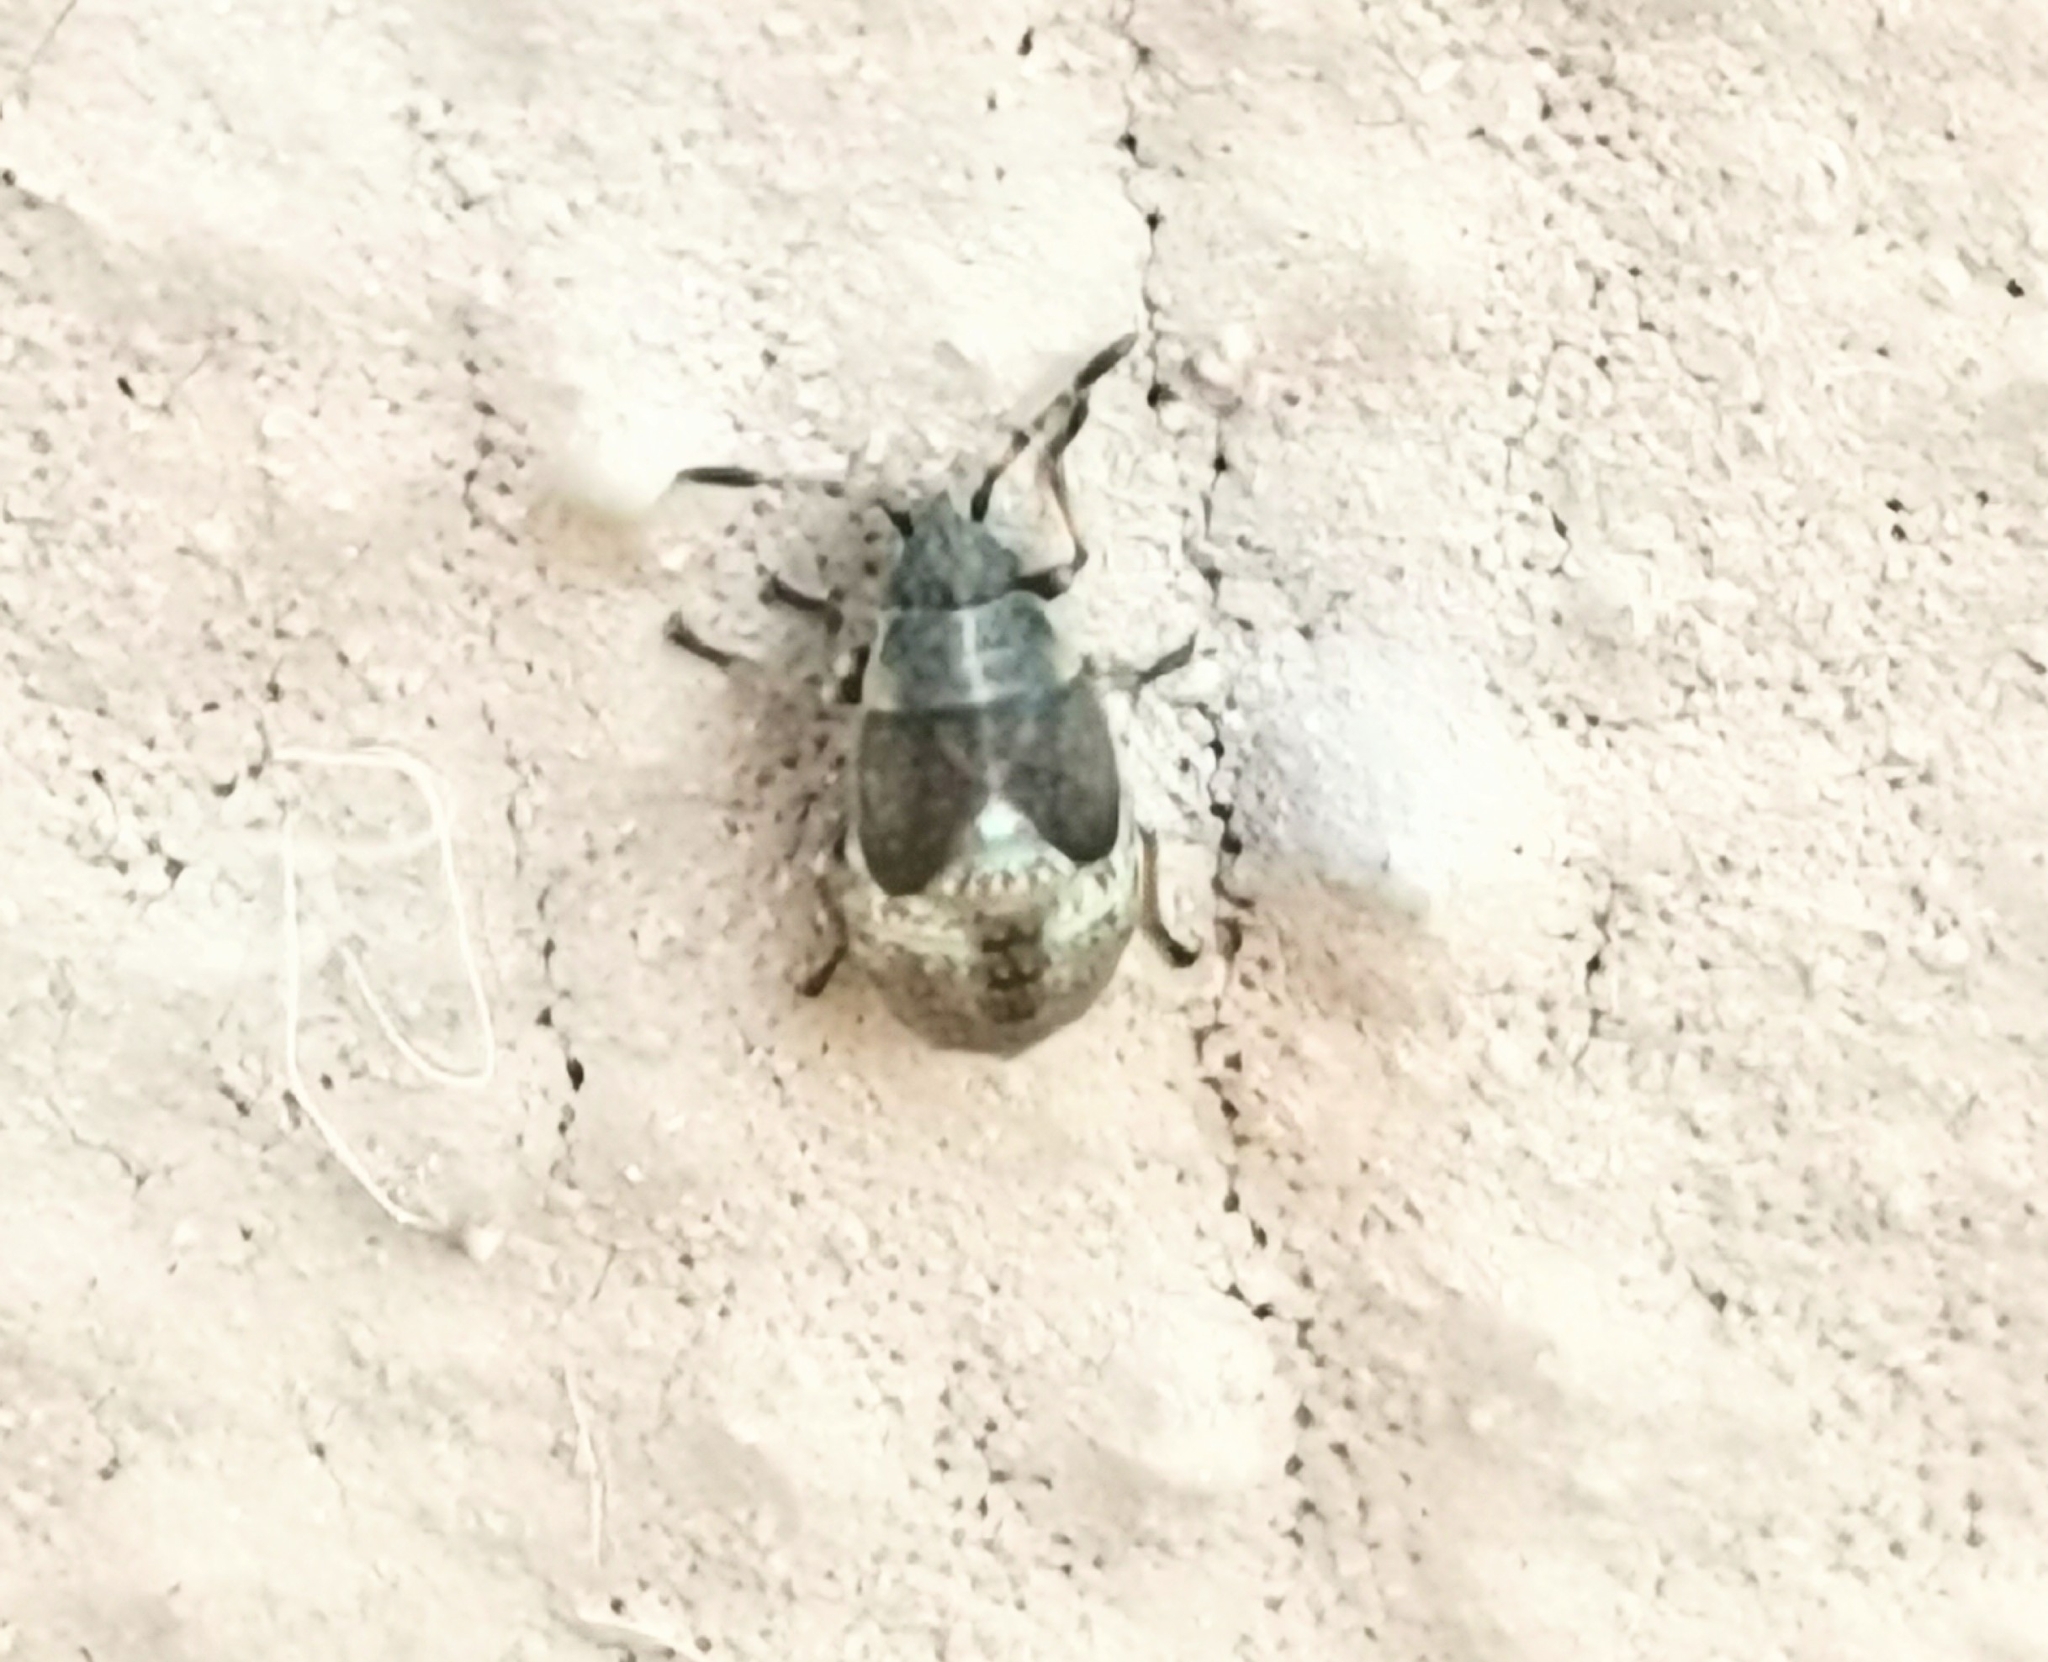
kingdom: Animalia
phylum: Arthropoda
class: Insecta
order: Hemiptera
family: Lygaeidae
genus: Kleidocerys
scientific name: Kleidocerys resedae
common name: Birch catkin bug
